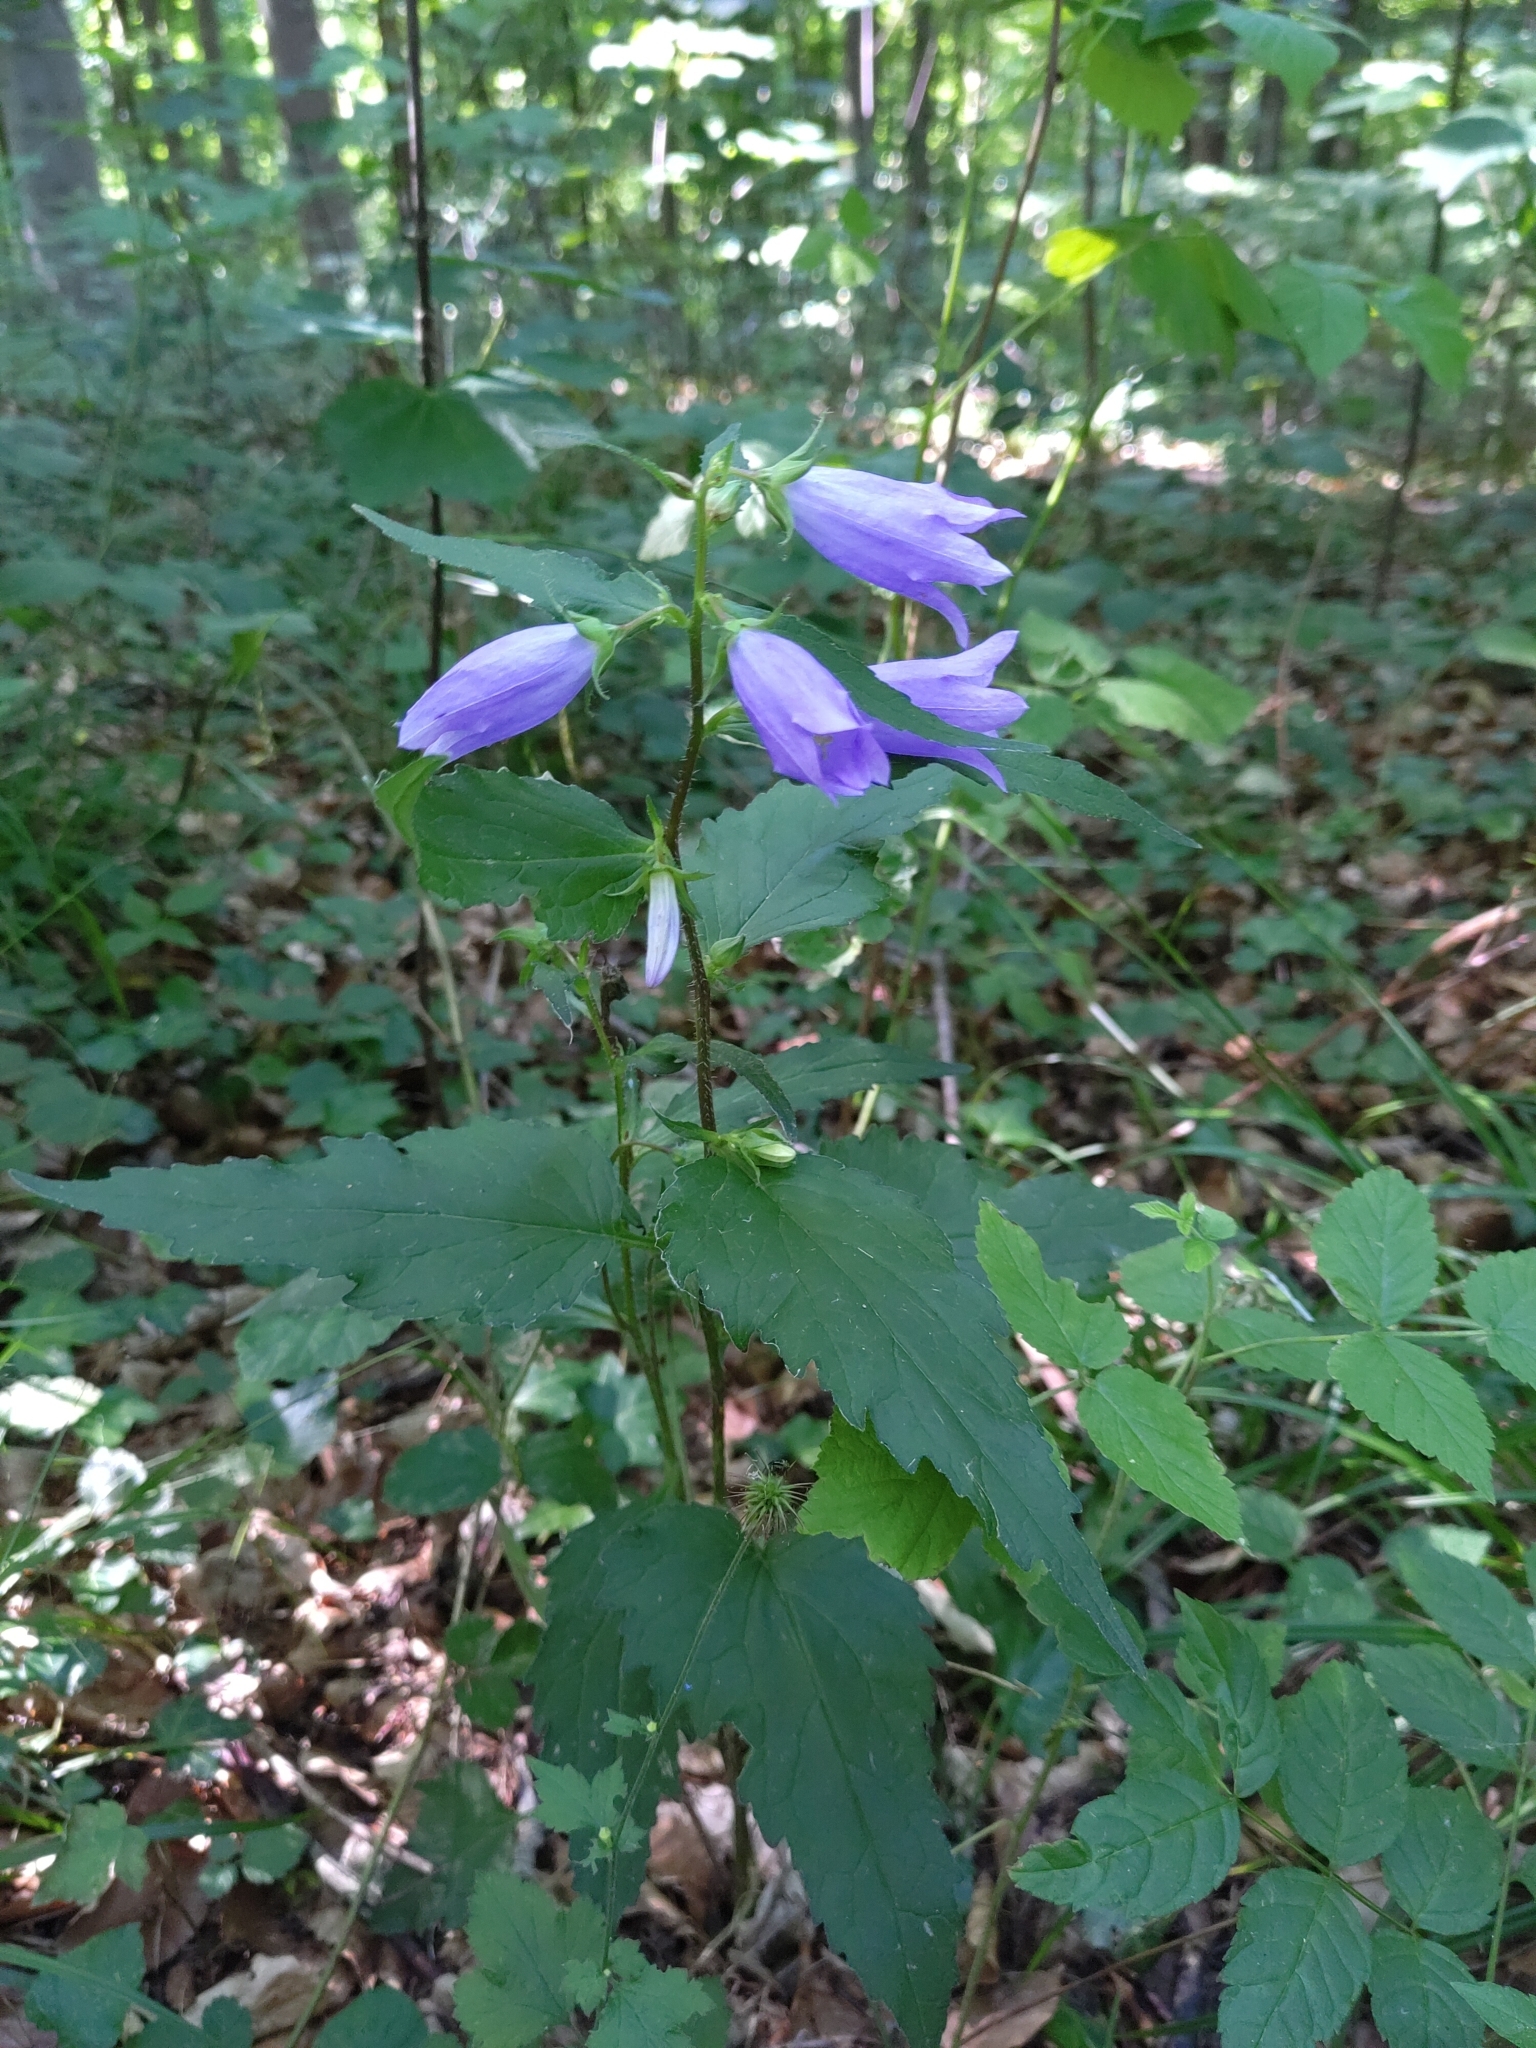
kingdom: Plantae
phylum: Tracheophyta
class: Magnoliopsida
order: Asterales
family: Campanulaceae
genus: Campanula
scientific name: Campanula trachelium
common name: Nettle-leaved bellflower
